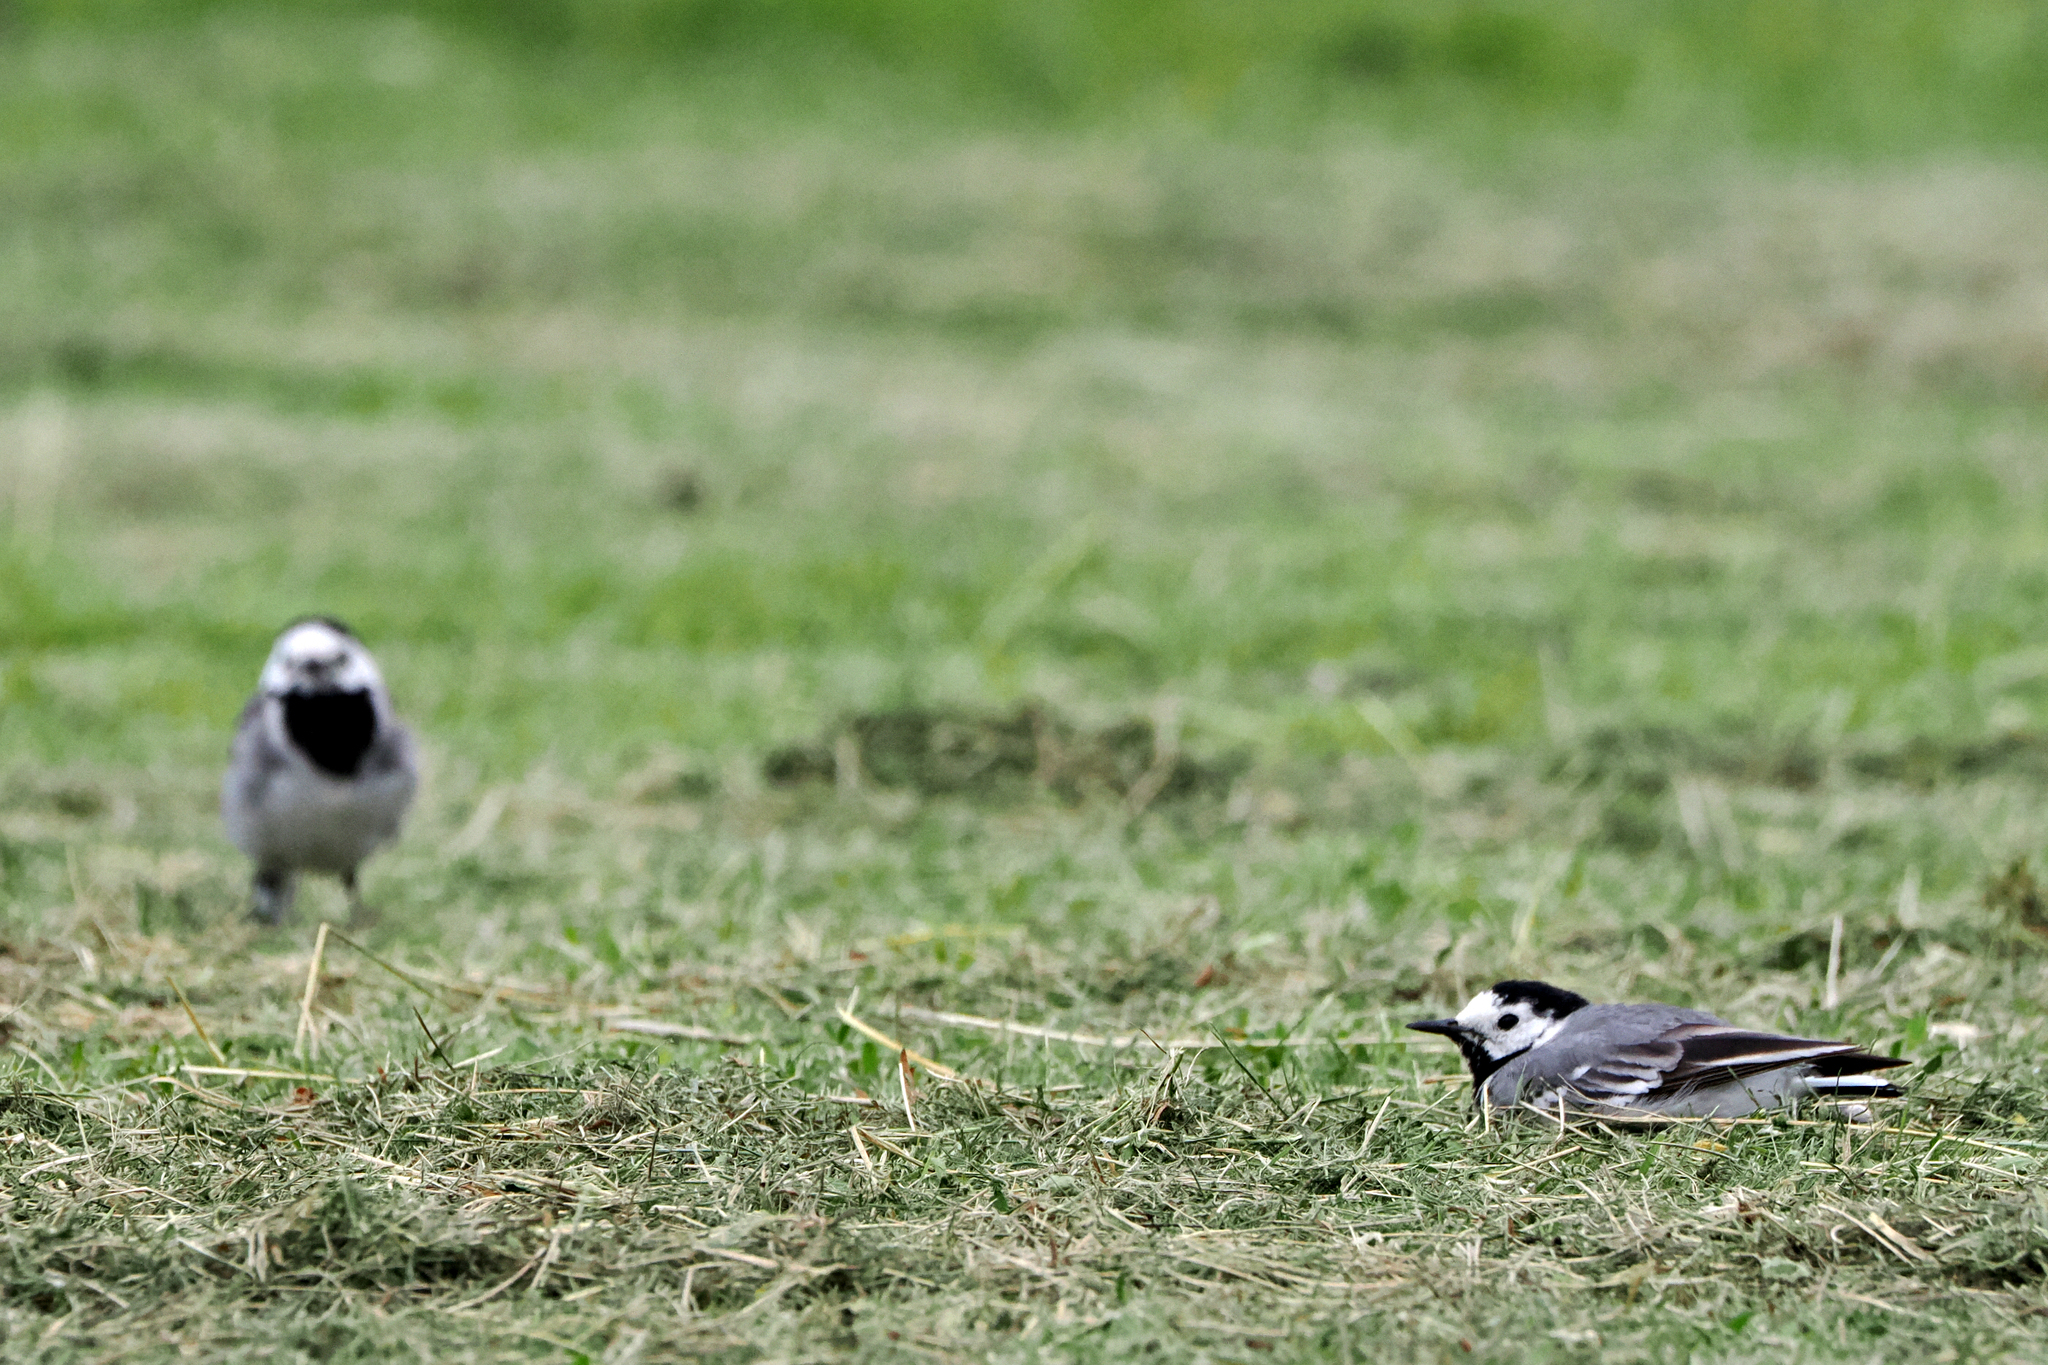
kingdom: Animalia
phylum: Chordata
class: Aves
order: Passeriformes
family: Motacillidae
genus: Motacilla
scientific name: Motacilla alba
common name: White wagtail
